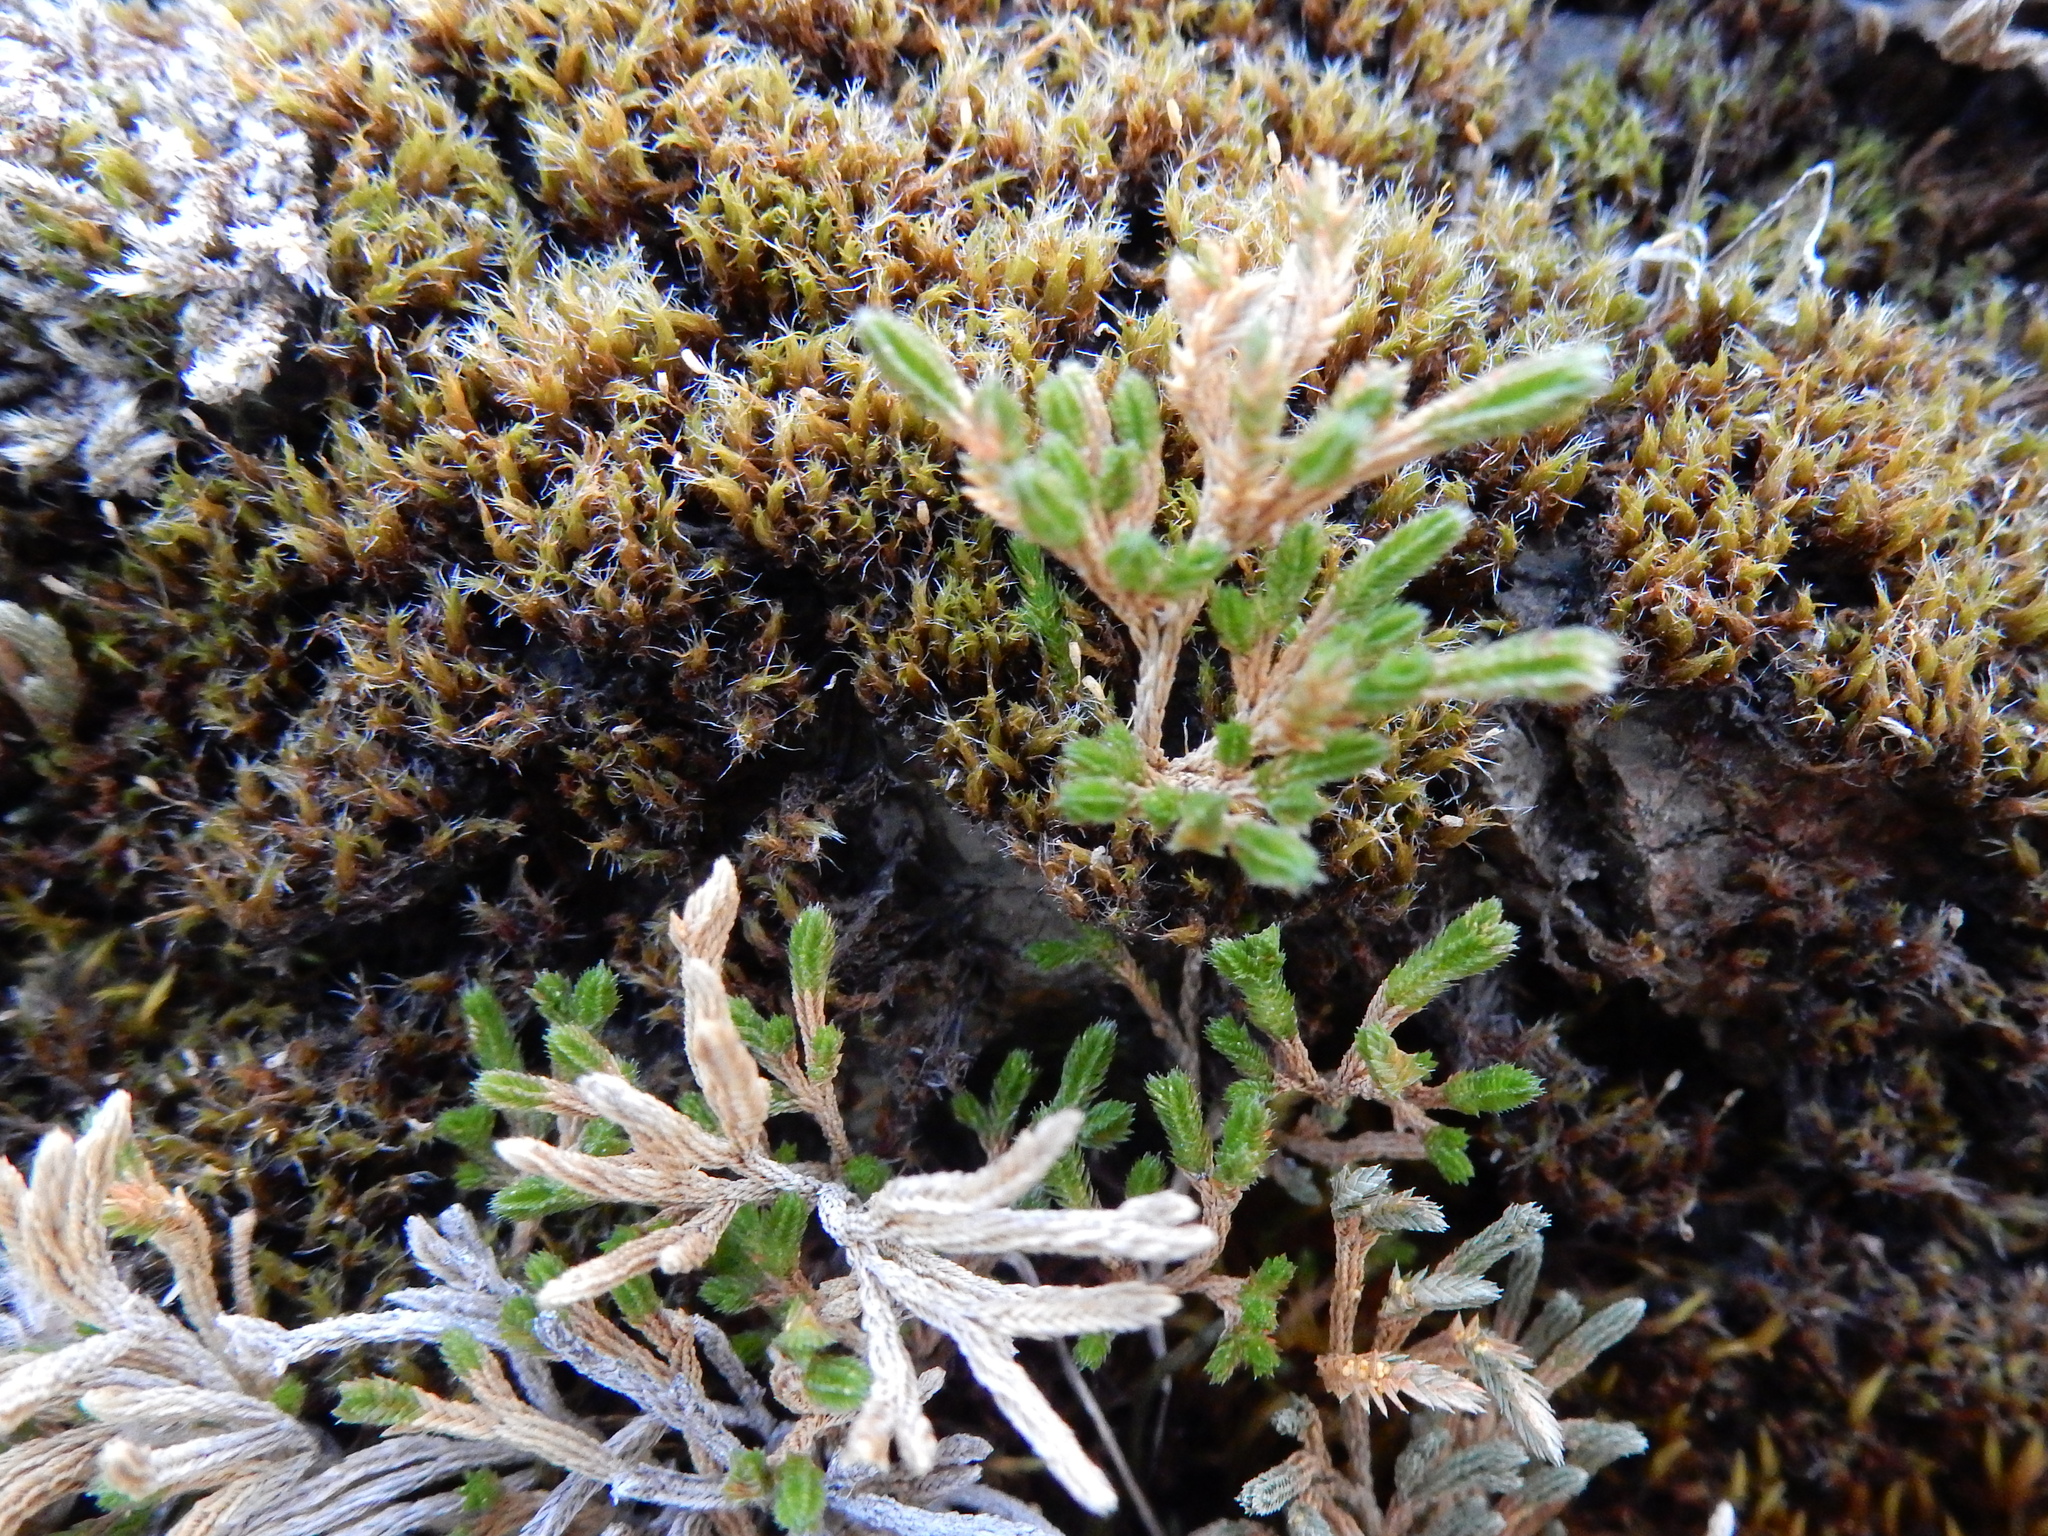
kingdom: Plantae
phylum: Tracheophyta
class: Lycopodiopsida
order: Selaginellales
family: Selaginellaceae
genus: Selaginella
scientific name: Selaginella bigelovii
